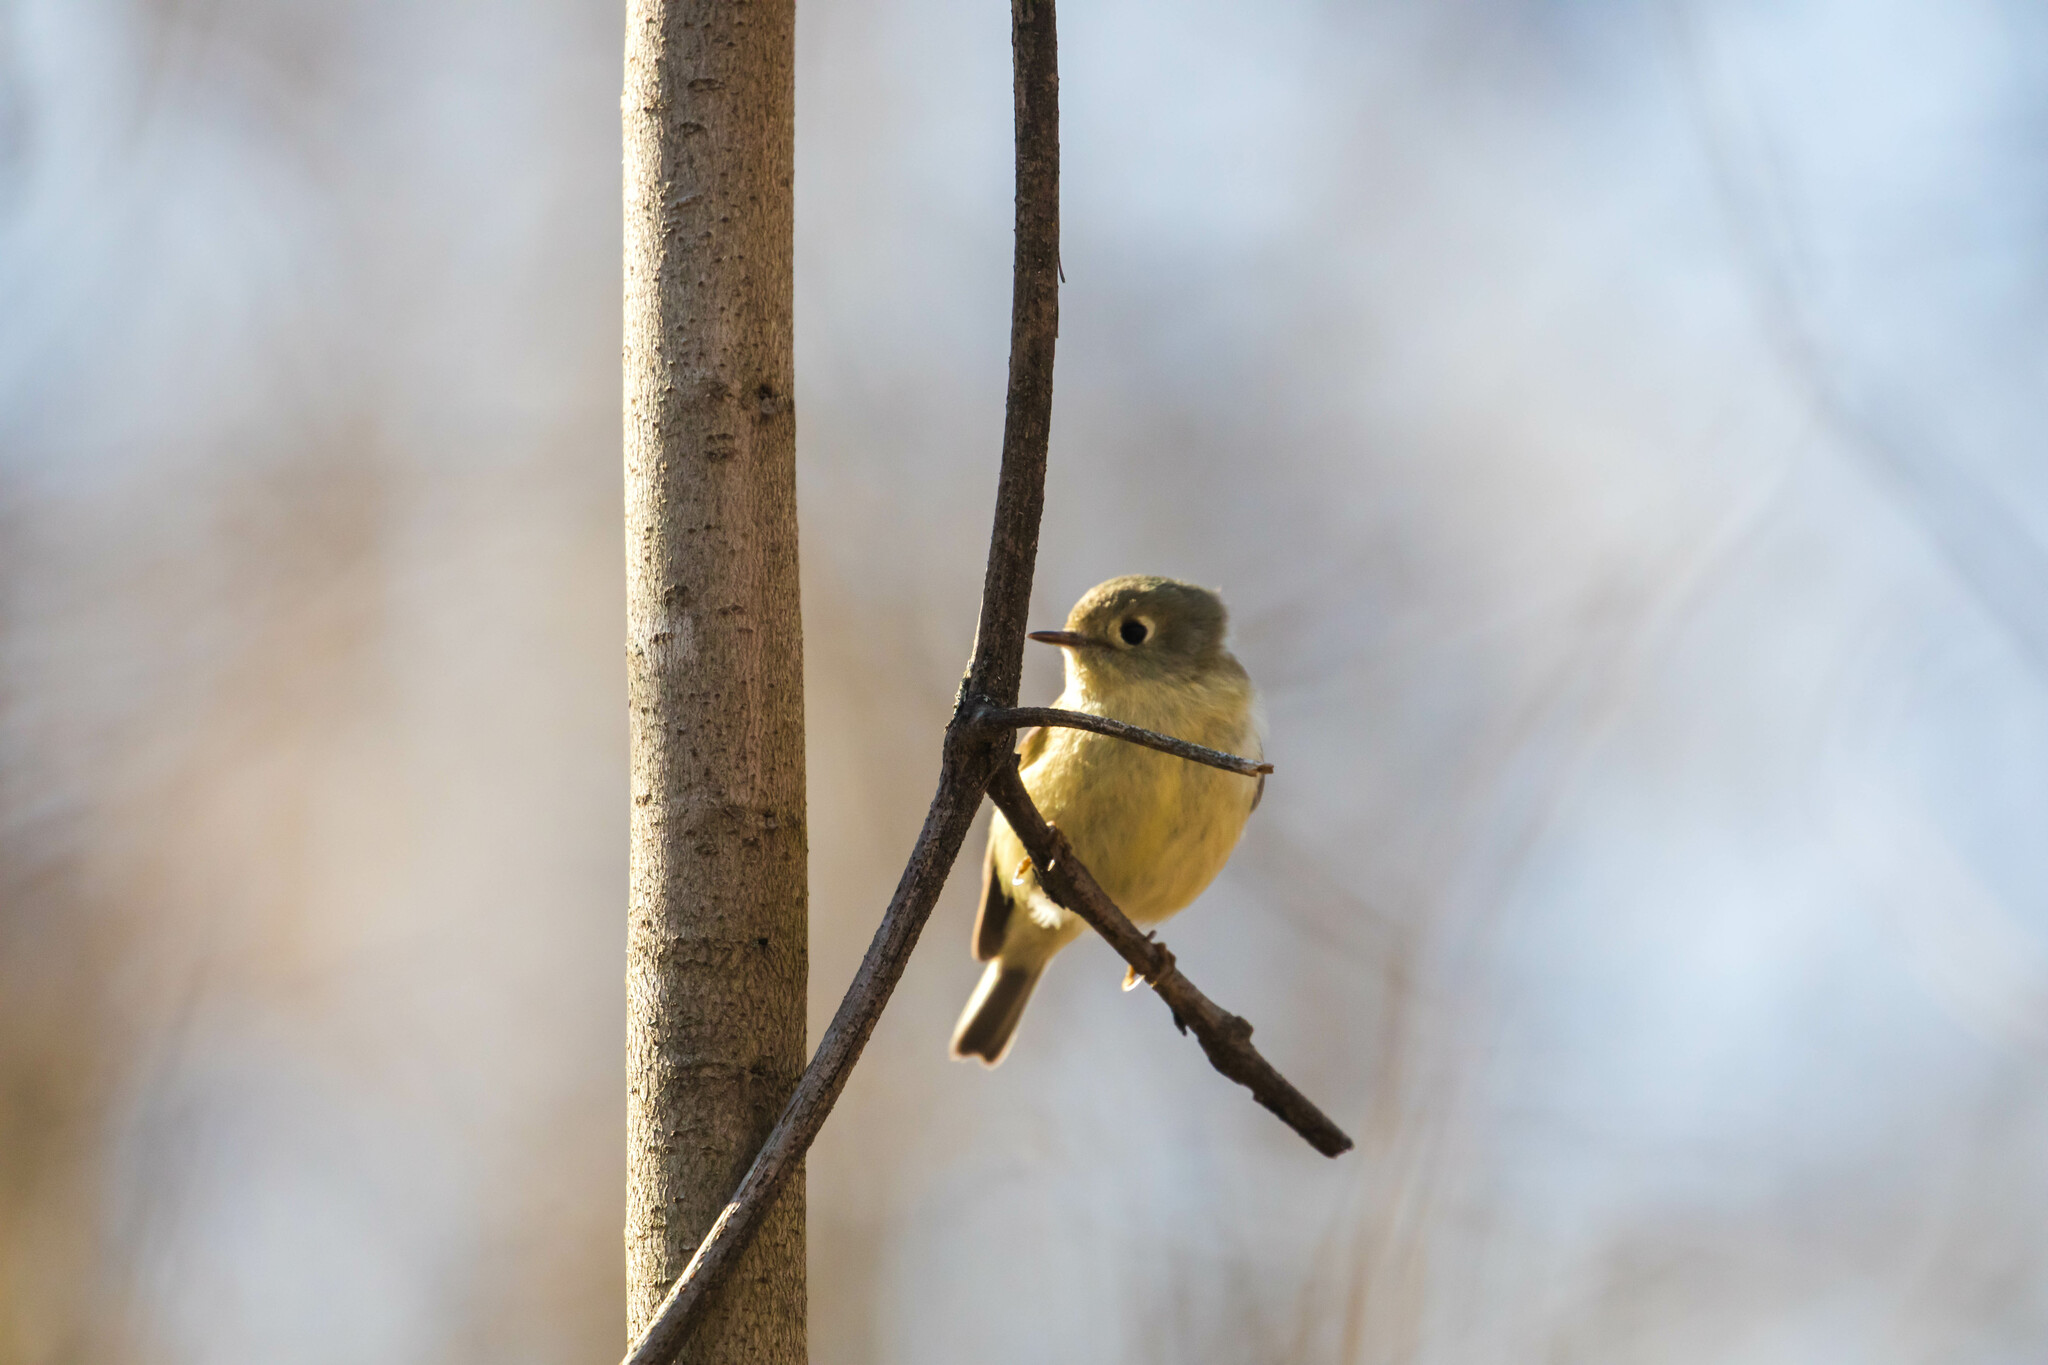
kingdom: Animalia
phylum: Chordata
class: Aves
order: Passeriformes
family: Regulidae
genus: Regulus
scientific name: Regulus calendula
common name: Ruby-crowned kinglet
